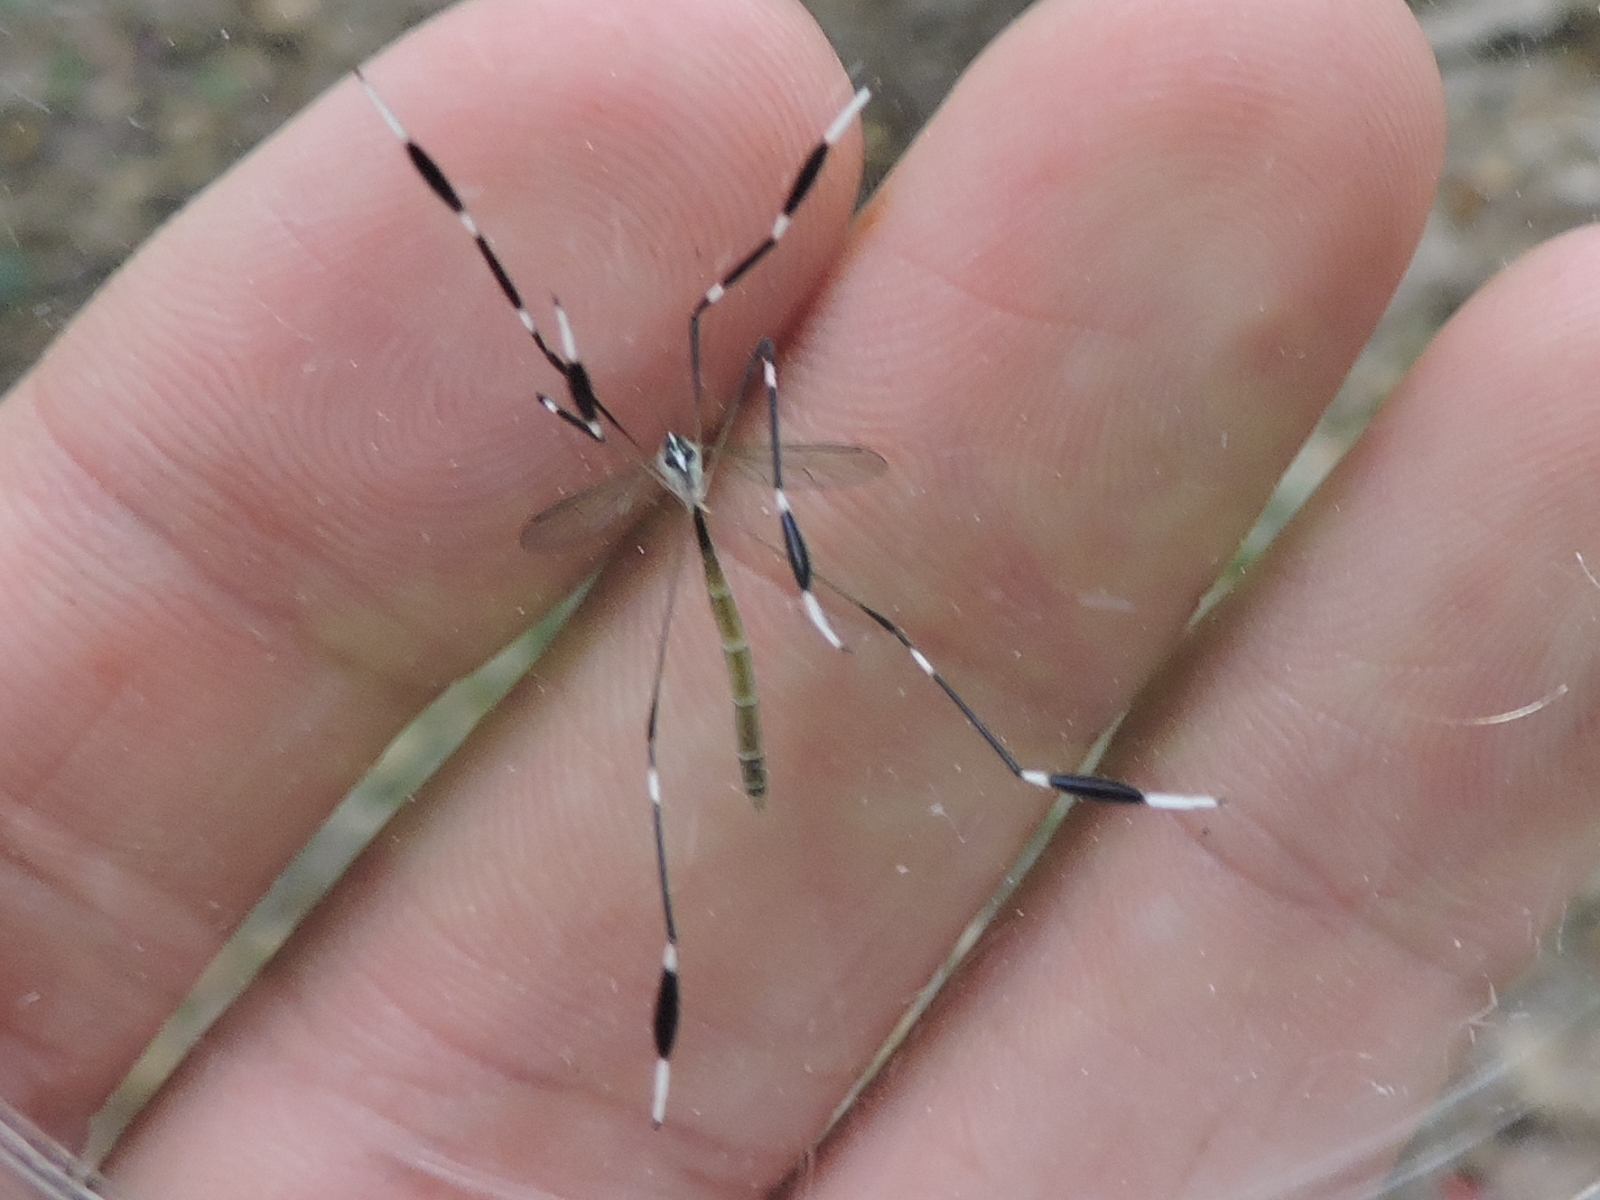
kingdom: Animalia
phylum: Arthropoda
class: Insecta
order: Diptera
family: Ptychopteridae
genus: Bittacomorpha
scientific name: Bittacomorpha clavipes
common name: Eastern phantom crane fly
